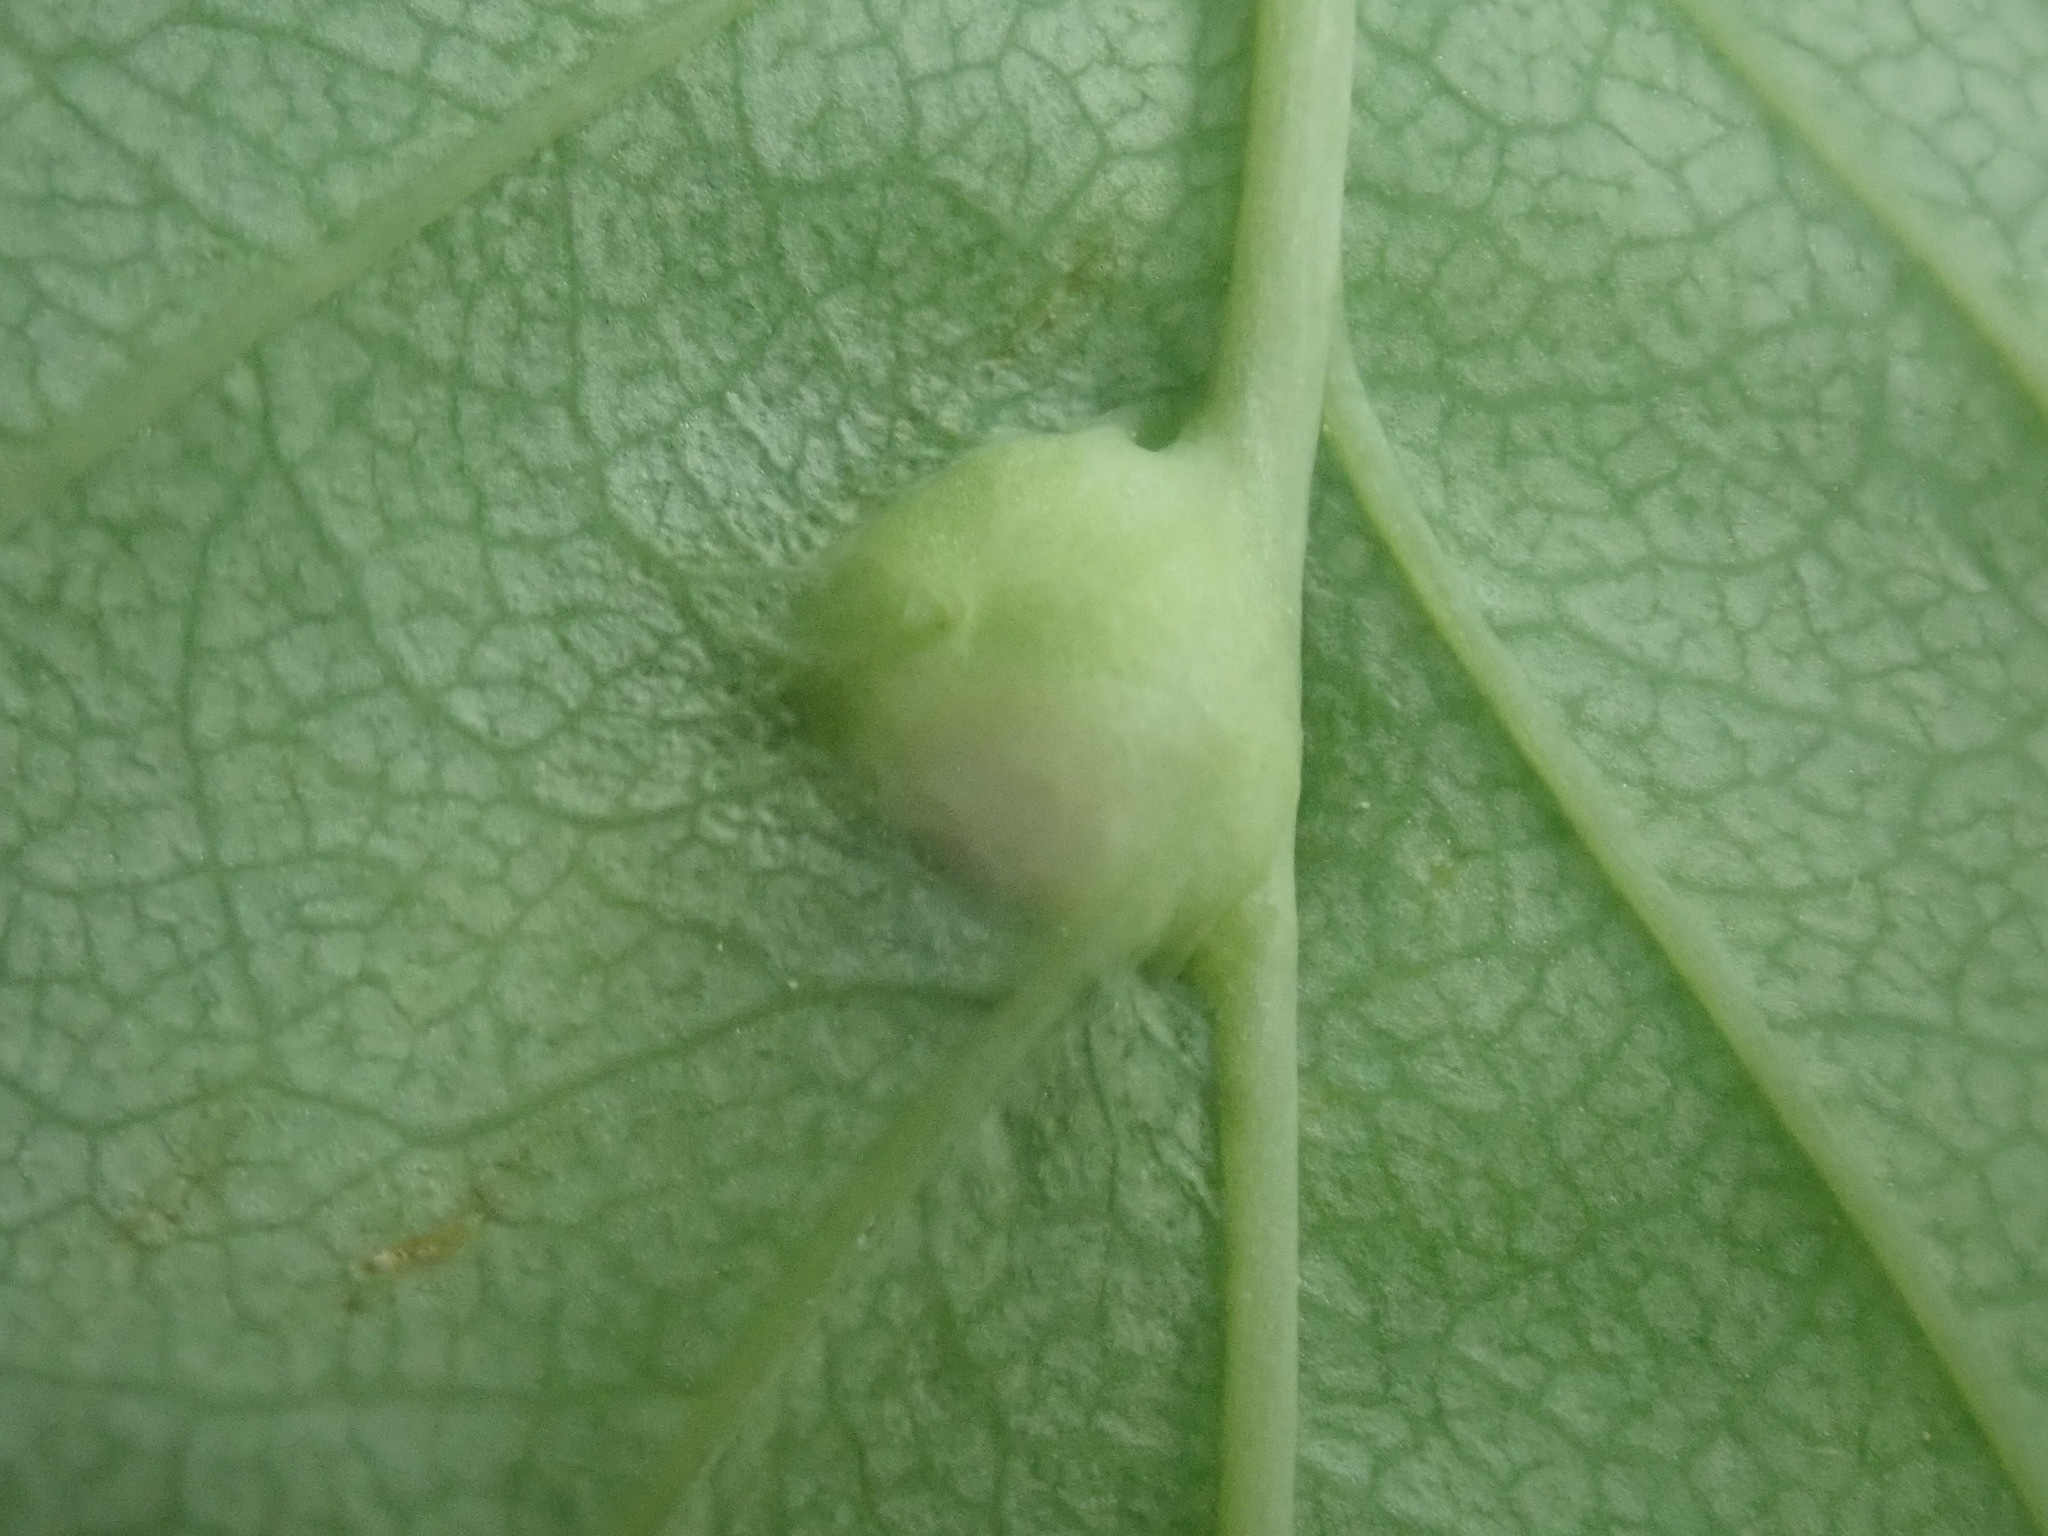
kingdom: Animalia
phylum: Arthropoda
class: Insecta
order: Diptera
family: Cecidomyiidae
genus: Blaesodiplosis
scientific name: Blaesodiplosis crataegibedeguar
